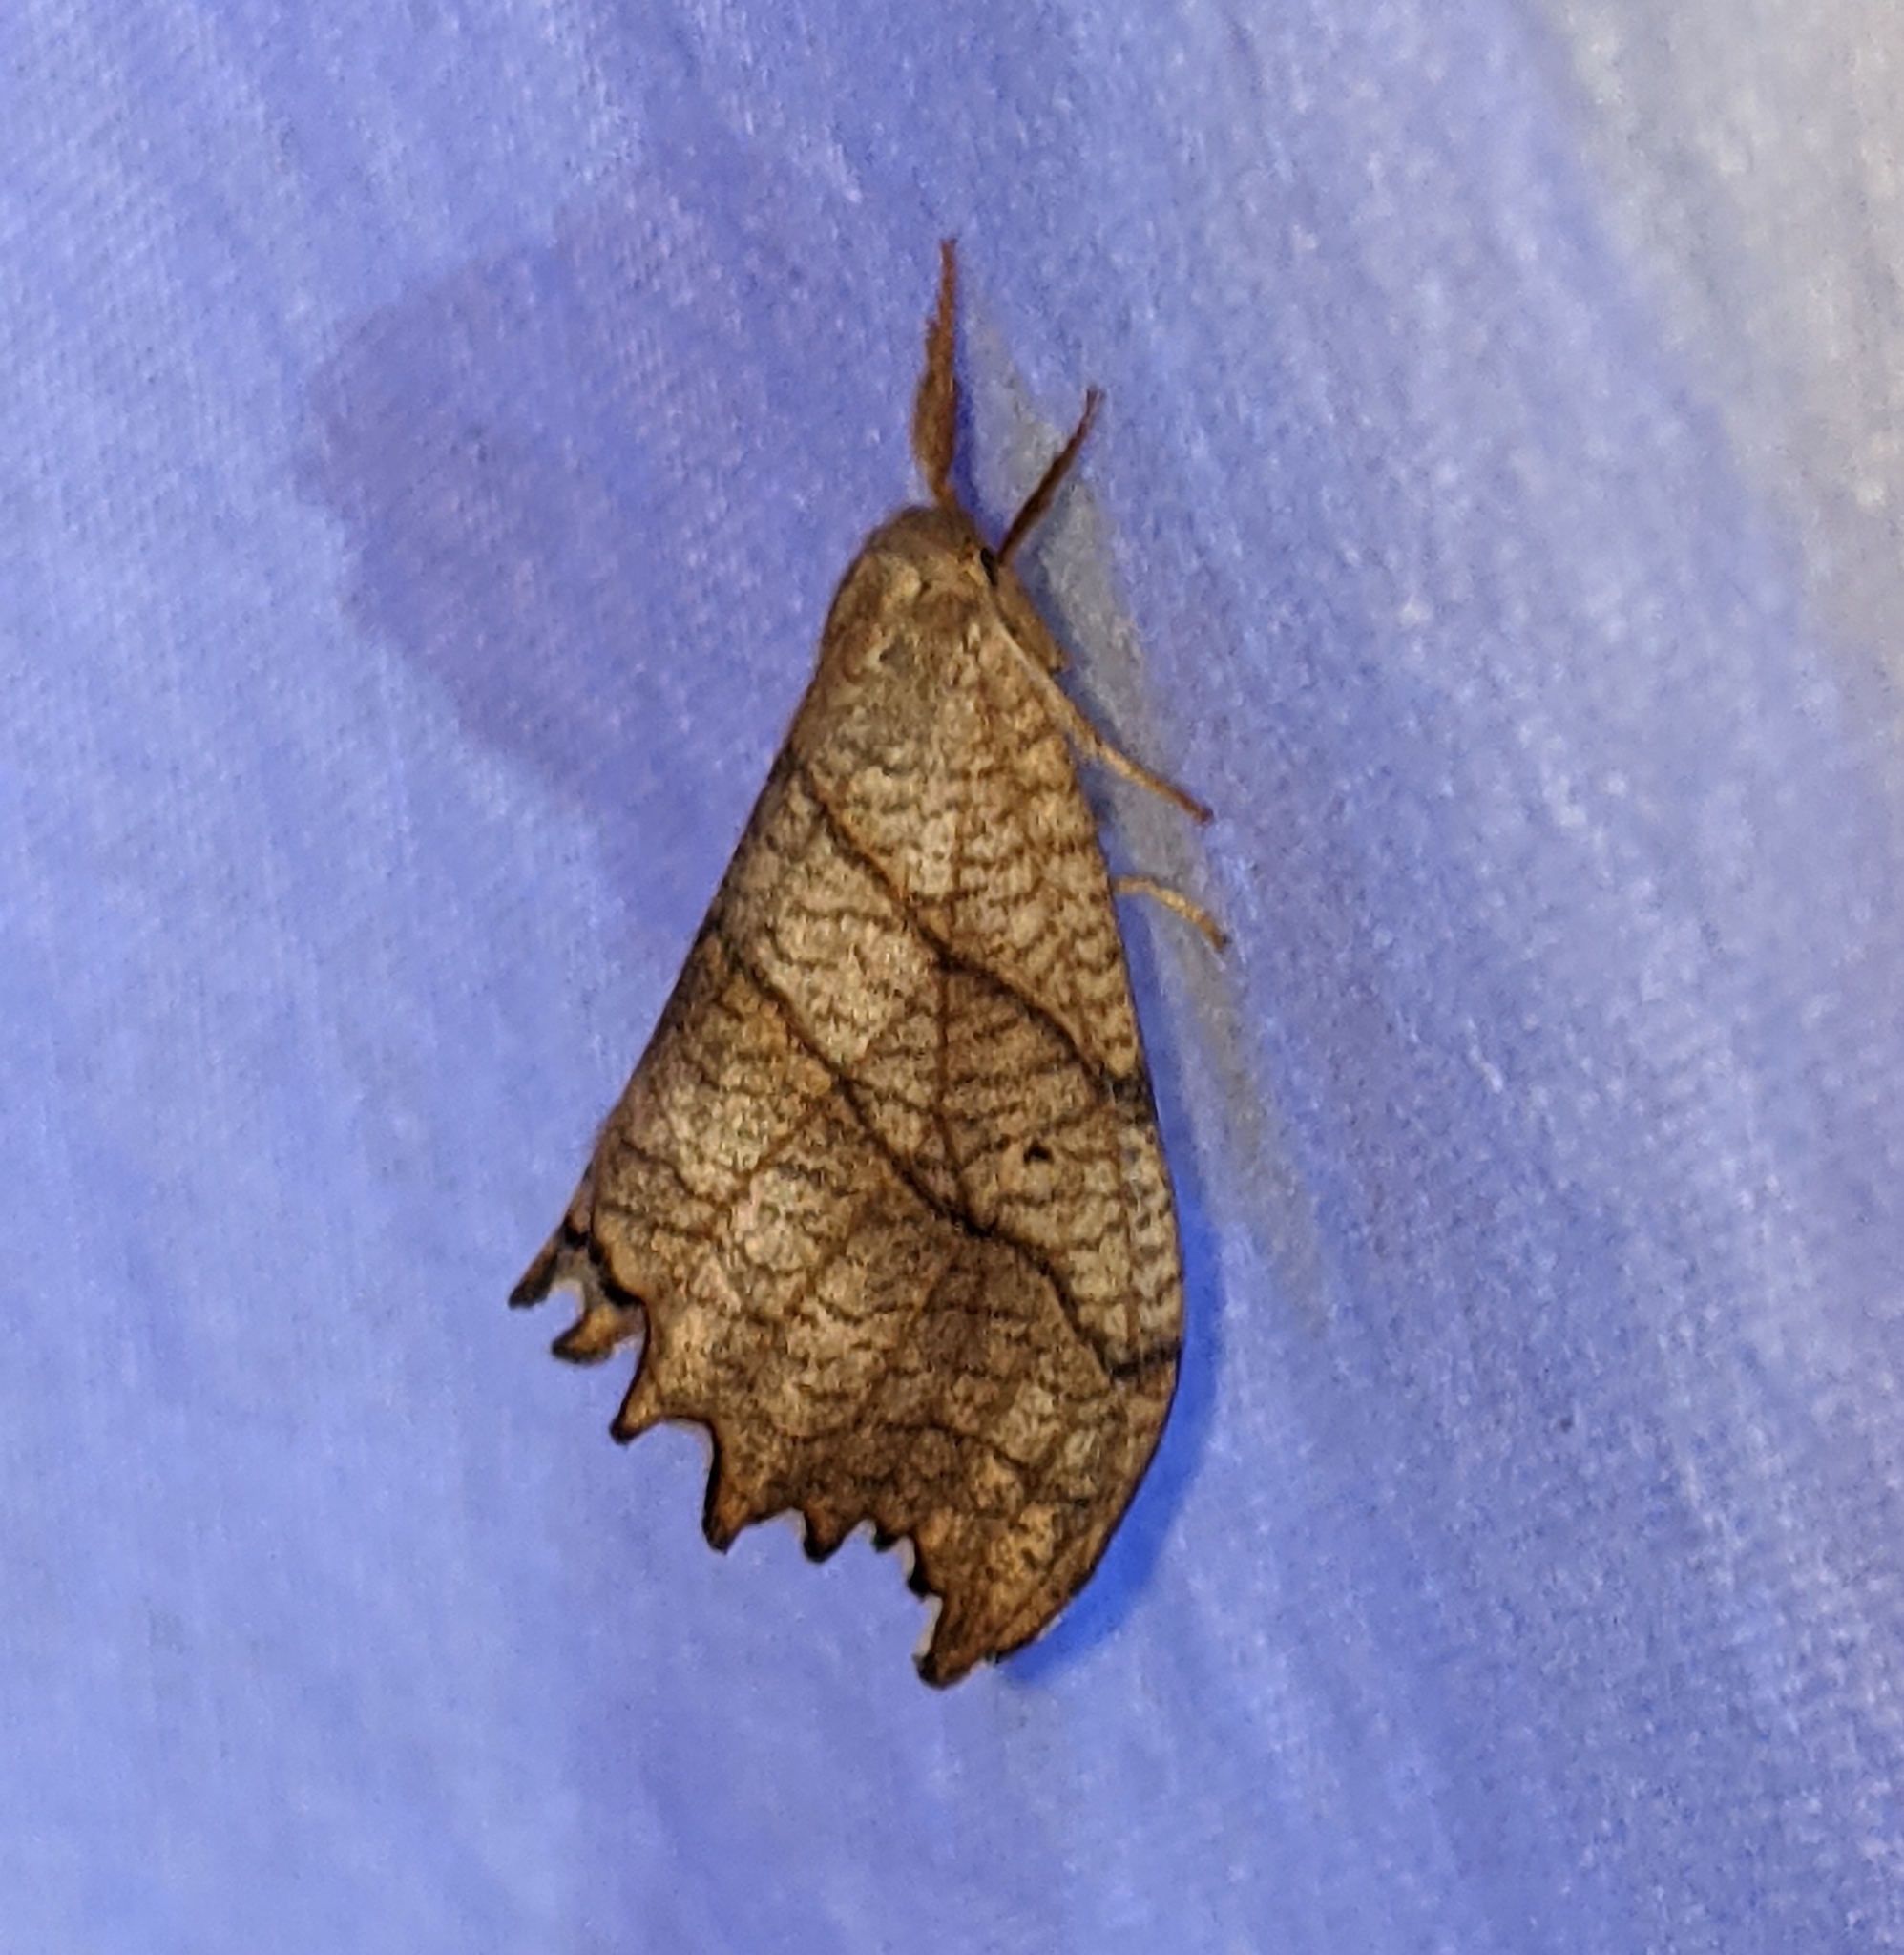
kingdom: Animalia
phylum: Arthropoda
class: Insecta
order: Lepidoptera
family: Drepanidae
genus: Falcaria
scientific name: Falcaria bilineata
